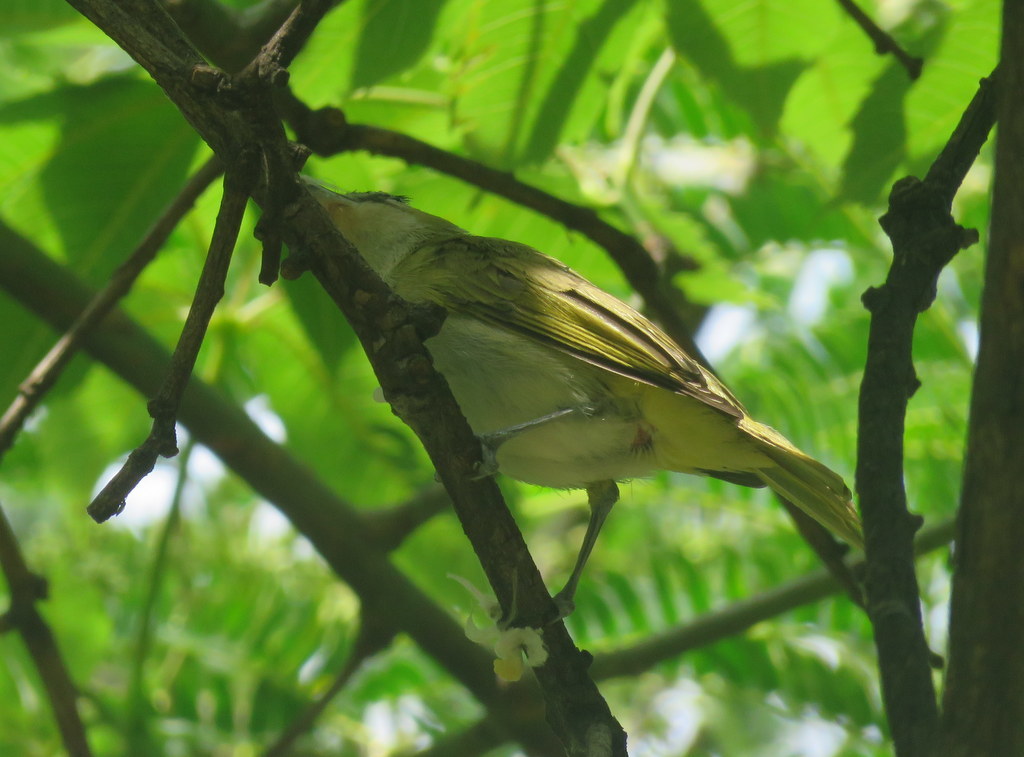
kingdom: Animalia
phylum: Chordata
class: Aves
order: Passeriformes
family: Vireonidae
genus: Vireo
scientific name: Vireo olivaceus
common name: Red-eyed vireo
